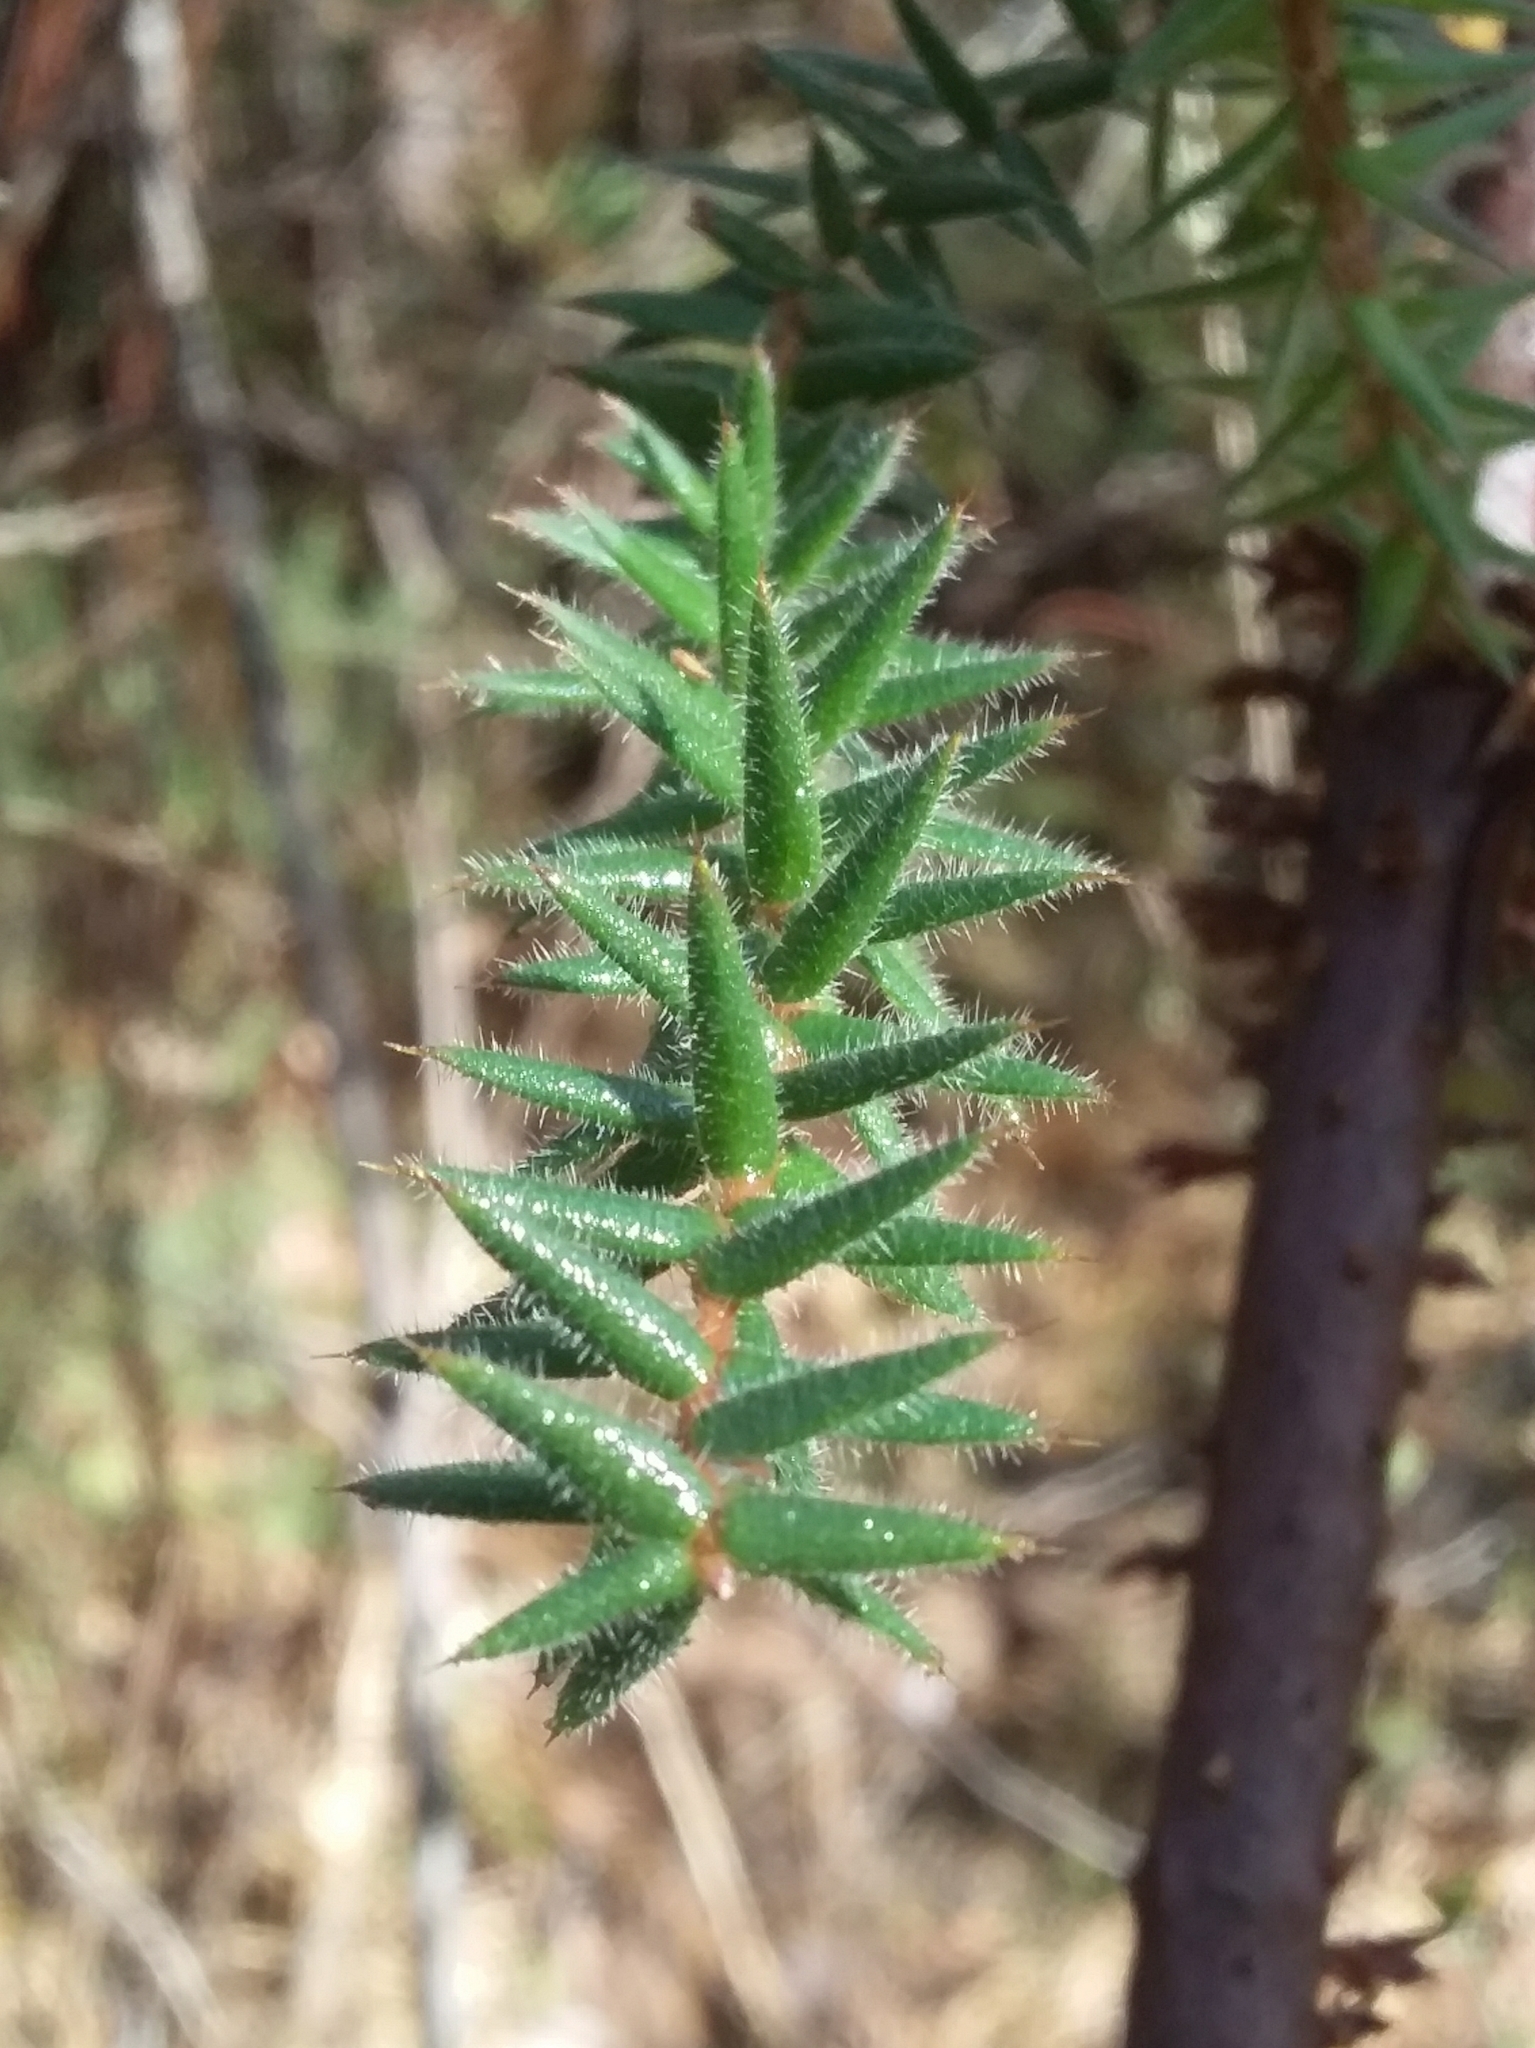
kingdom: Plantae
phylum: Tracheophyta
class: Magnoliopsida
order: Ericales
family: Ericaceae
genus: Acrotriche
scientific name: Acrotriche fasciculiflora
